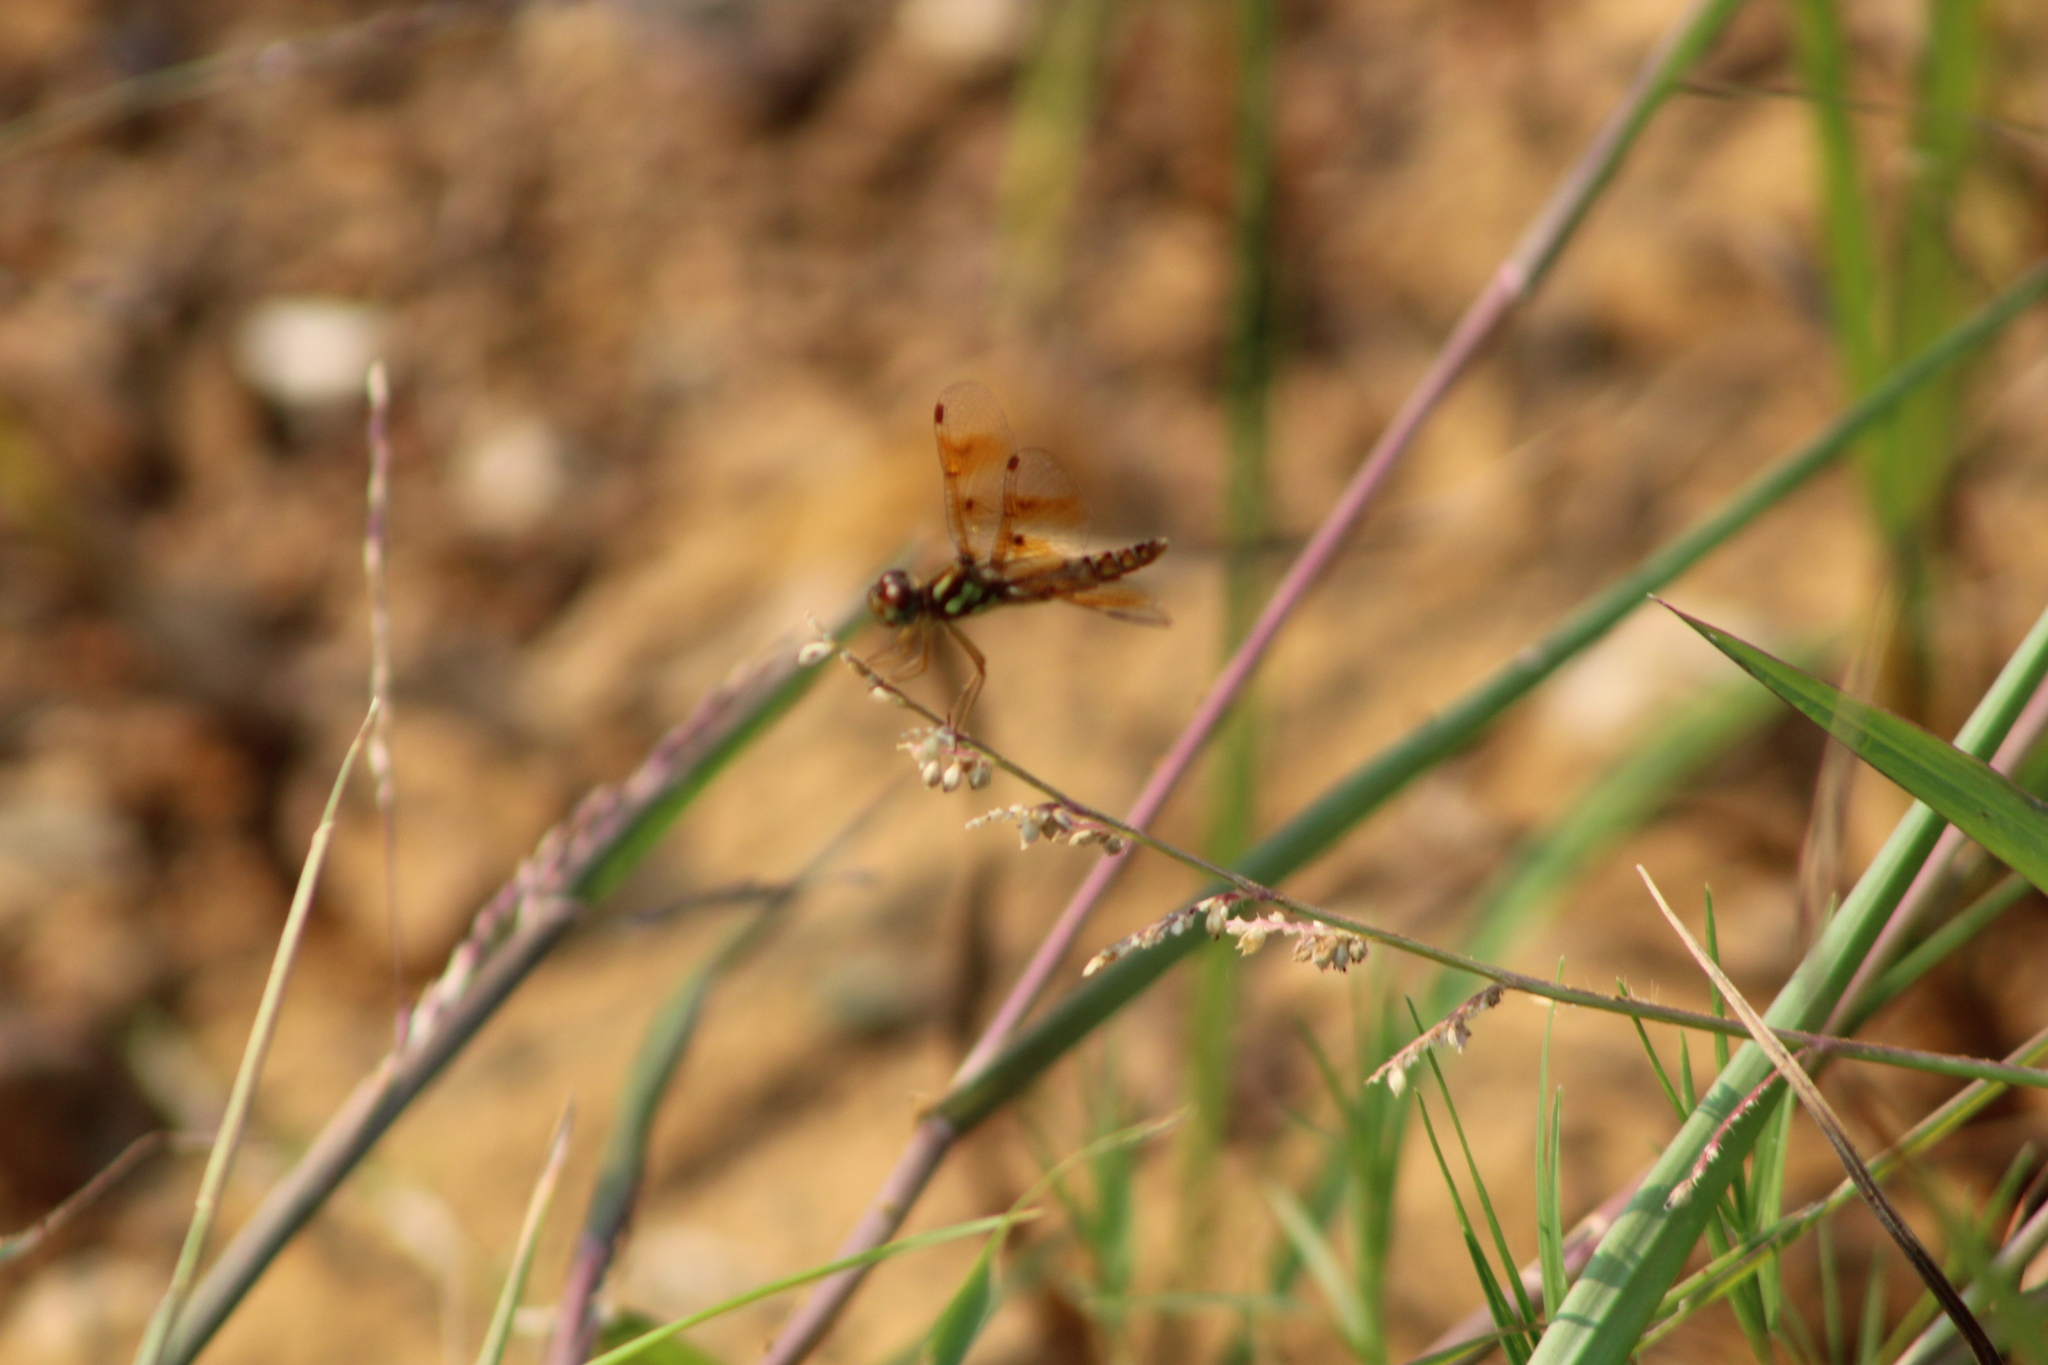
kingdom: Animalia
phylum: Arthropoda
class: Insecta
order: Odonata
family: Libellulidae
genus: Perithemis
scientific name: Perithemis tenera
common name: Eastern amberwing
